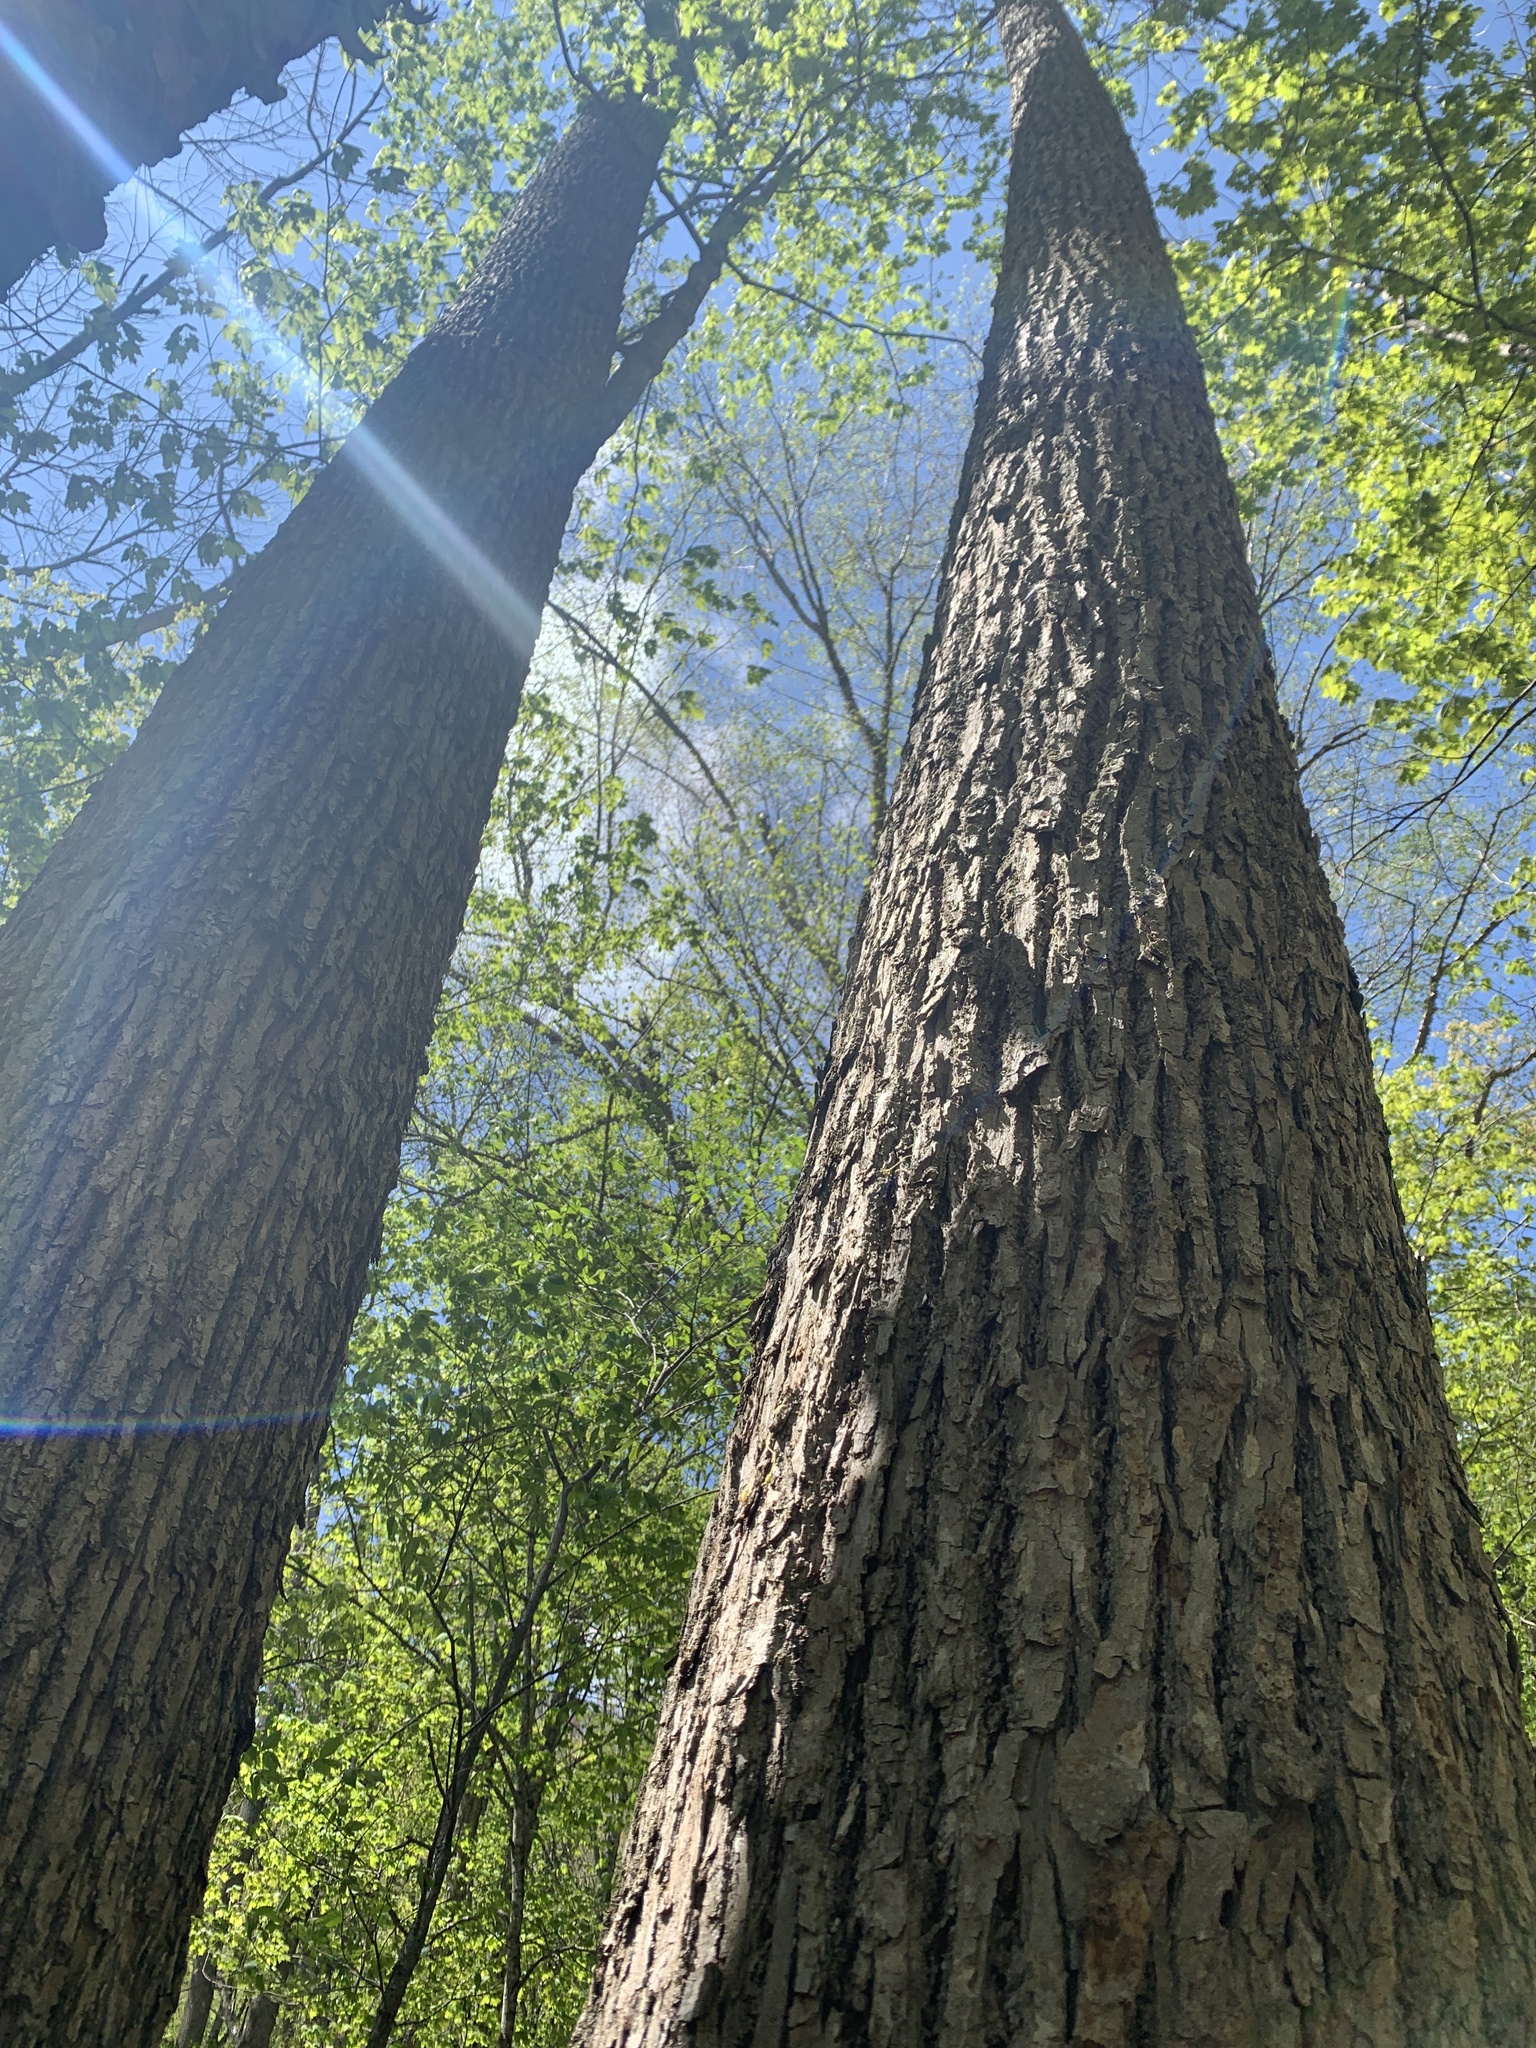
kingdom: Plantae
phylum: Tracheophyta
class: Magnoliopsida
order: Malvales
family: Malvaceae
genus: Tilia
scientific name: Tilia americana
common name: Basswood
